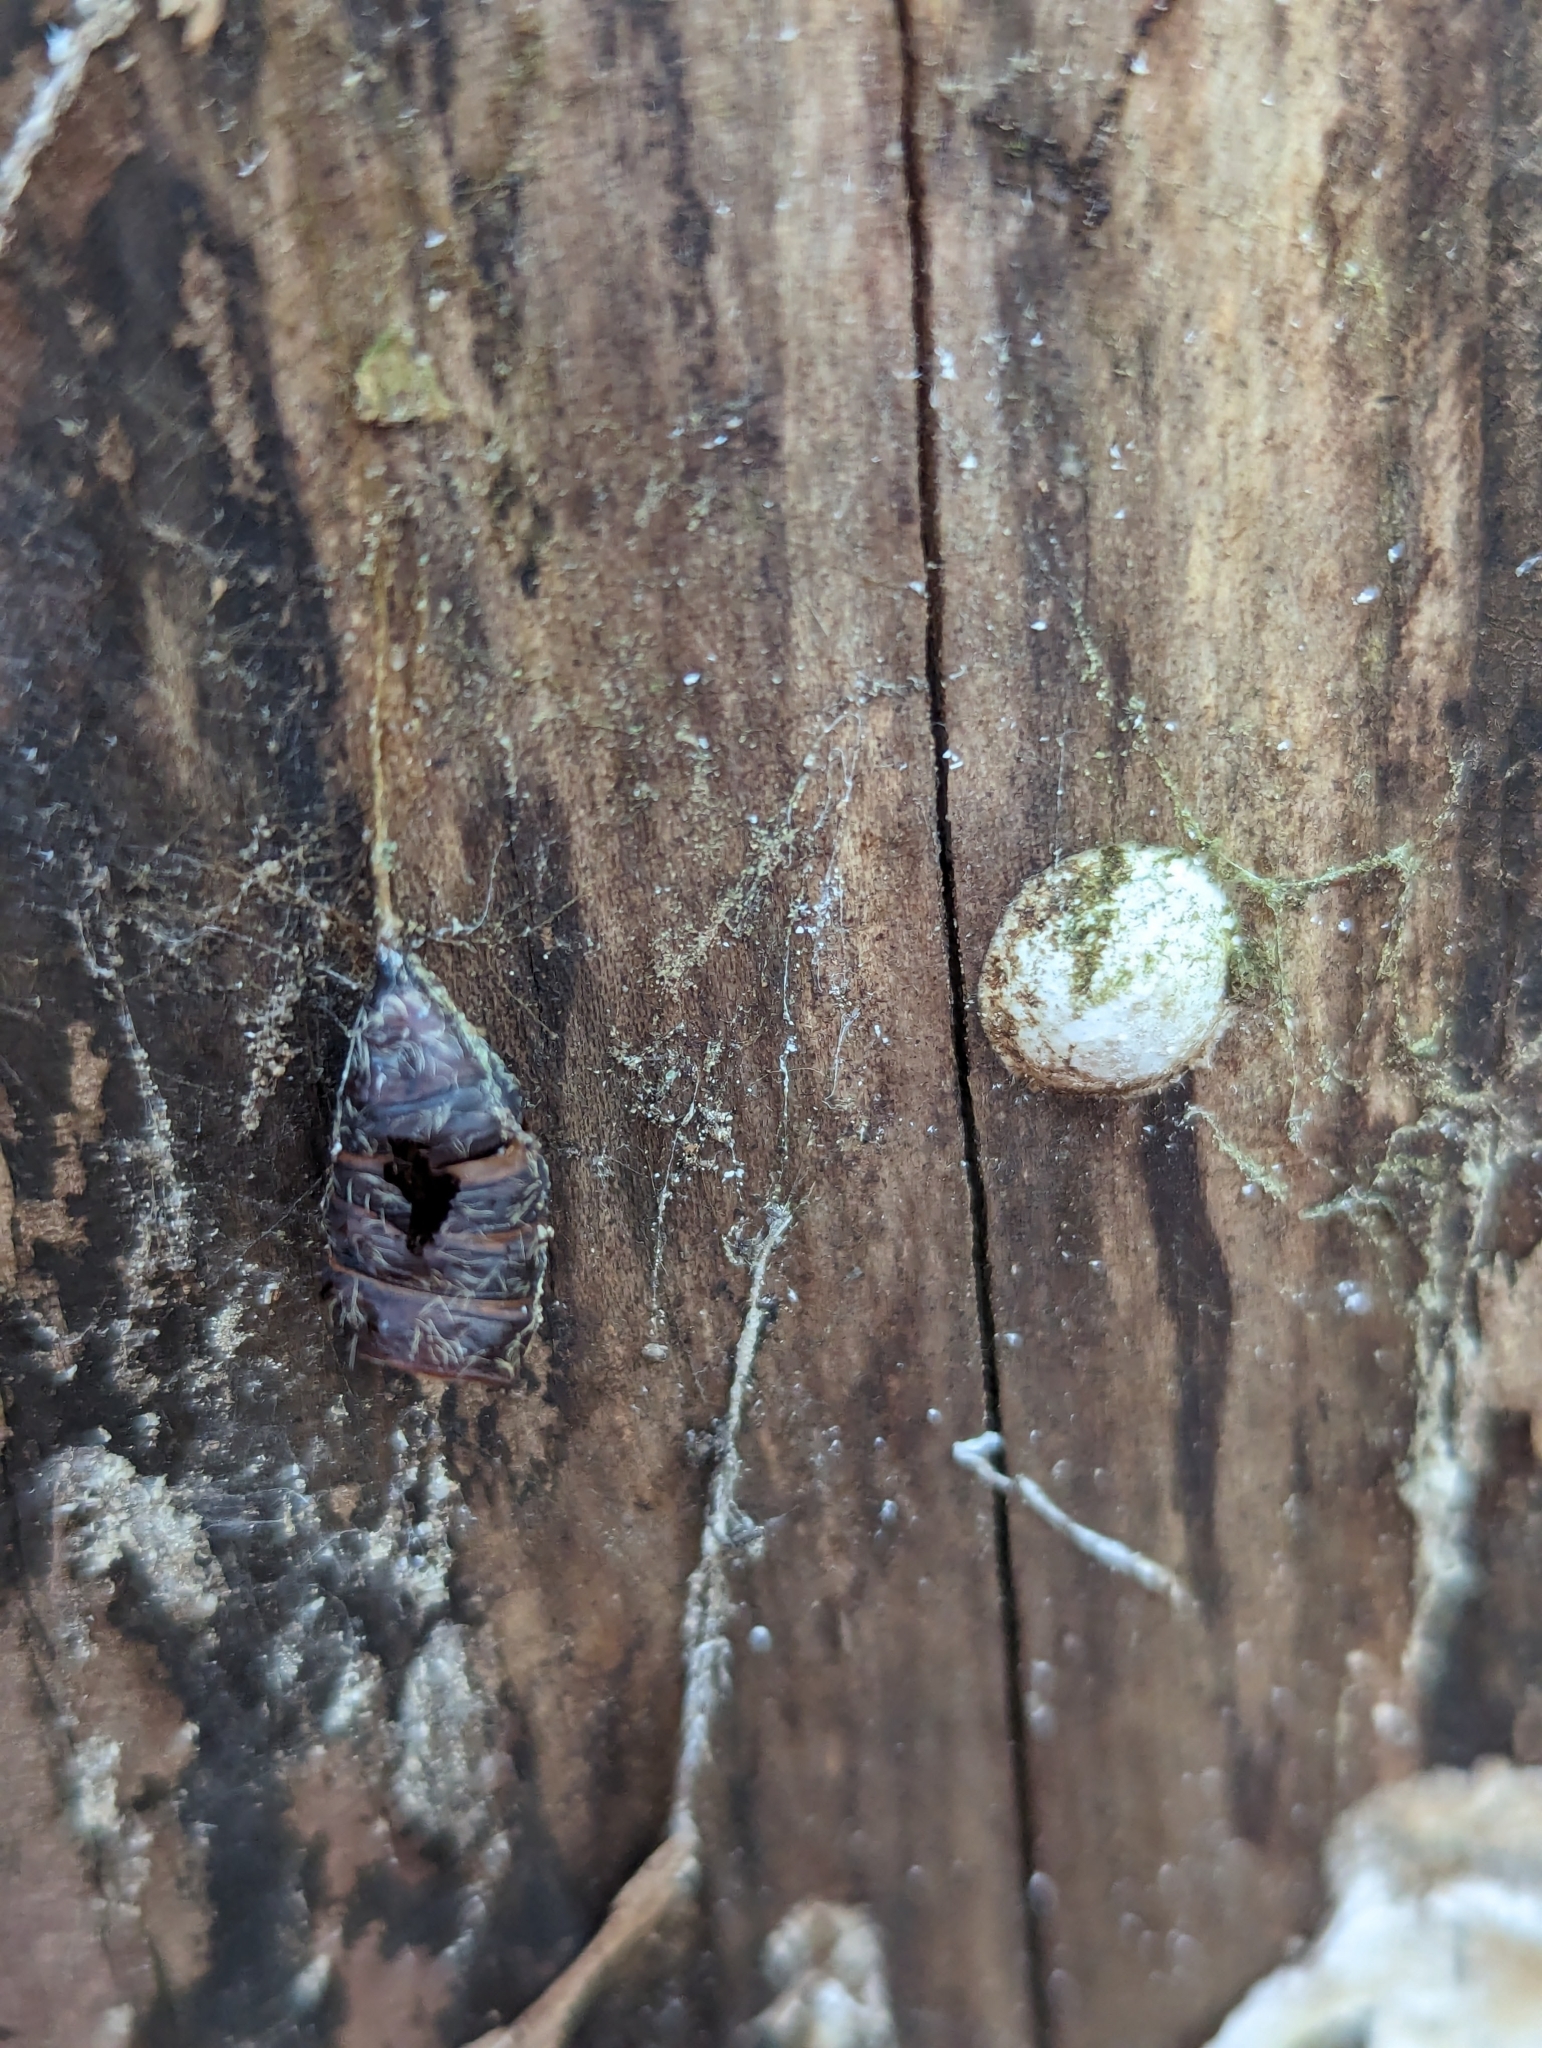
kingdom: Animalia
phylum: Arthropoda
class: Insecta
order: Lepidoptera
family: Erebidae
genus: Lymantria
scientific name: Lymantria dispar
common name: Gypsy moth
